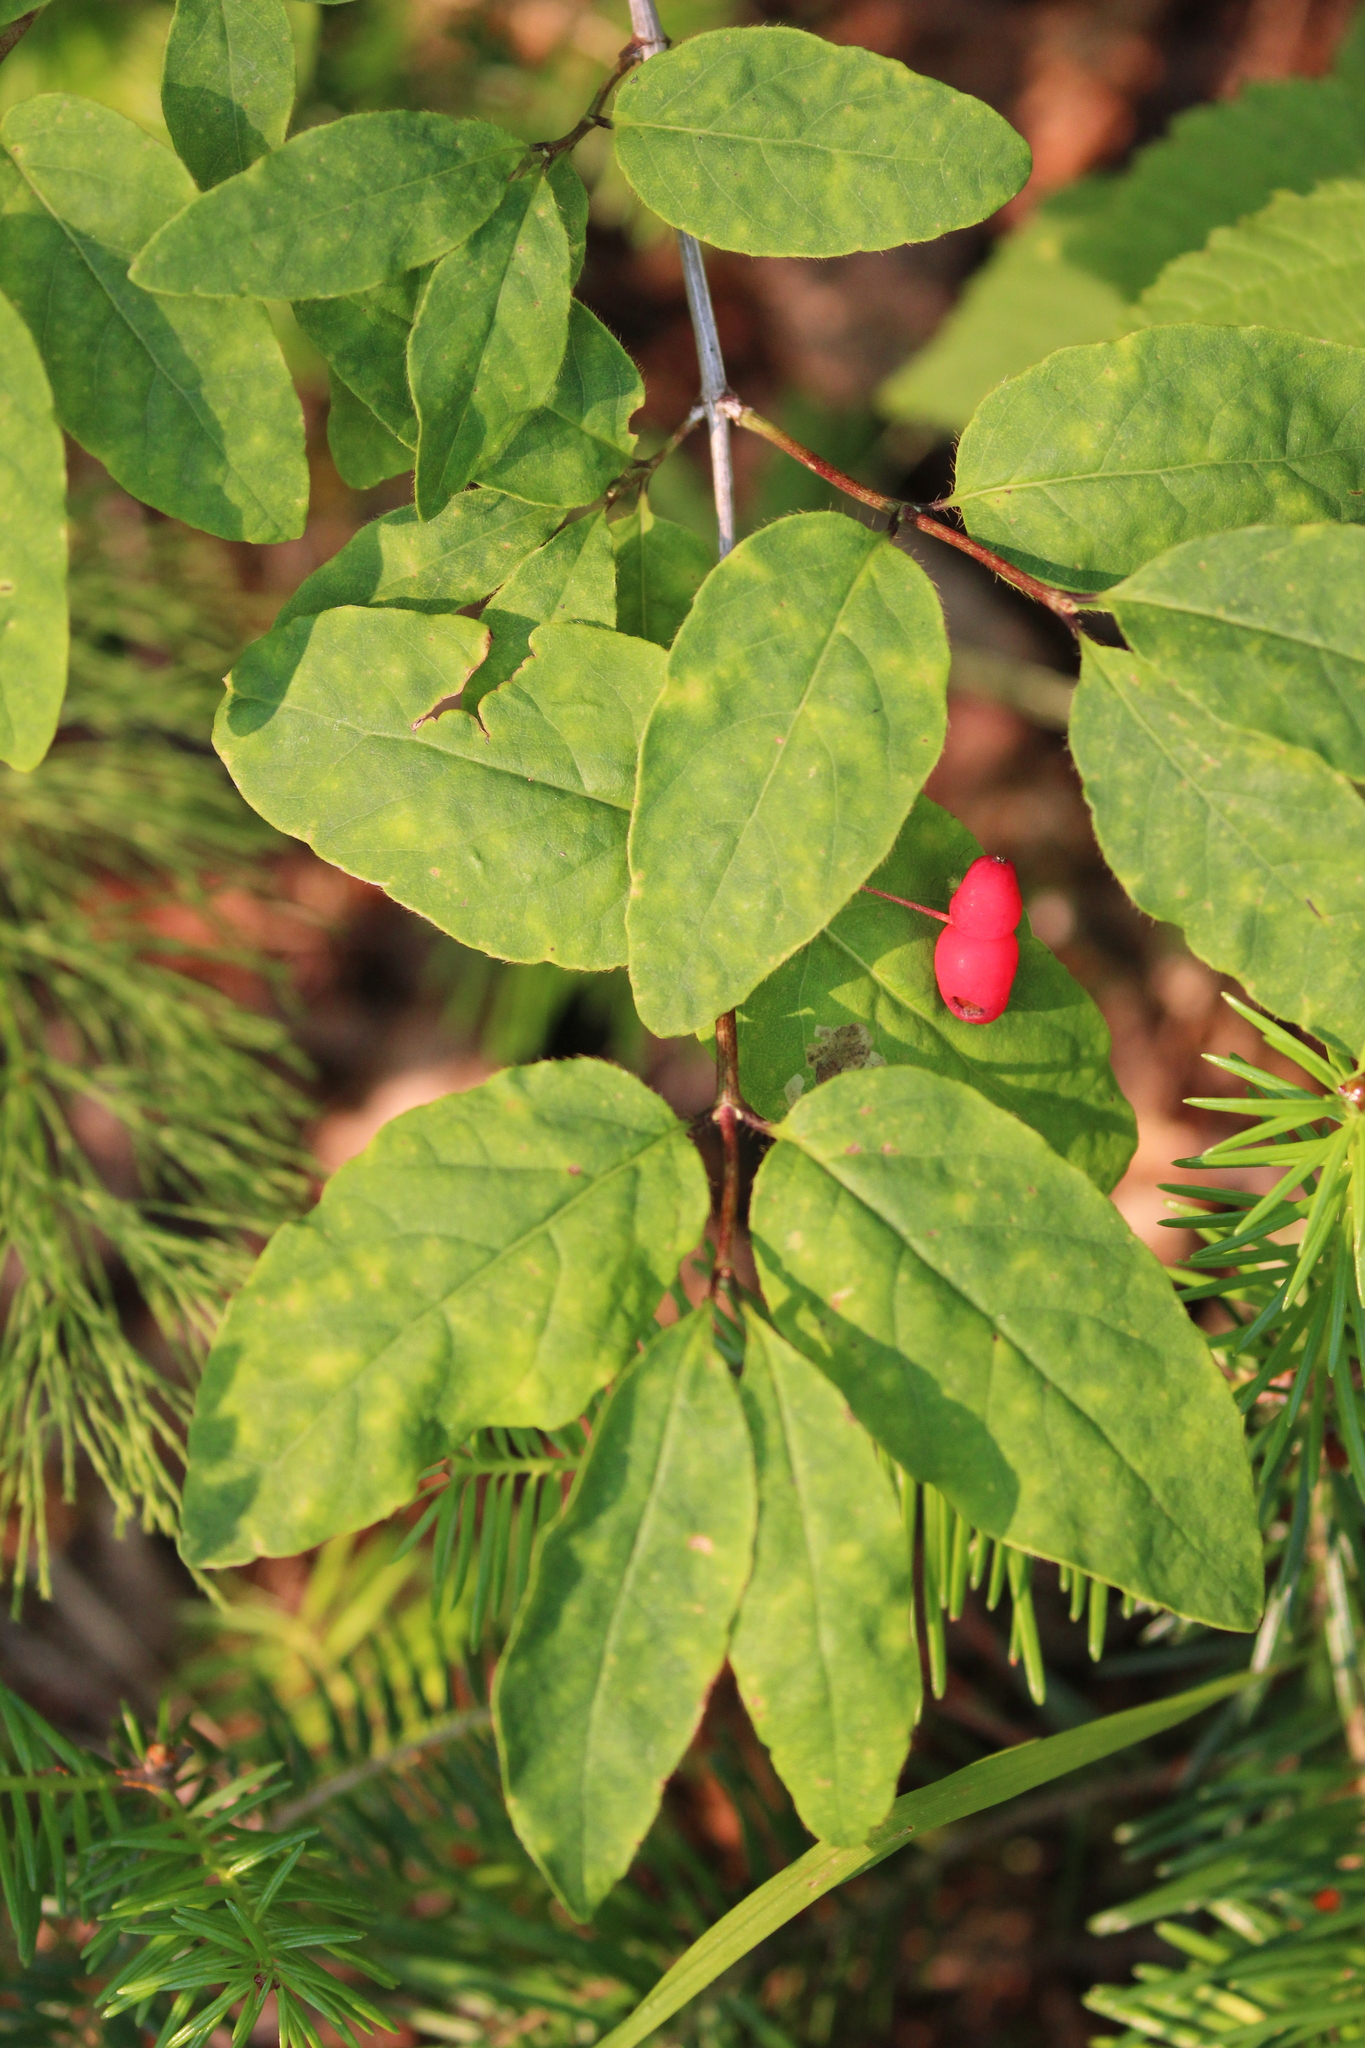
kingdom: Plantae
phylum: Tracheophyta
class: Magnoliopsida
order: Dipsacales
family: Caprifoliaceae
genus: Lonicera
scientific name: Lonicera canadensis
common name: American fly-honeysuckle
